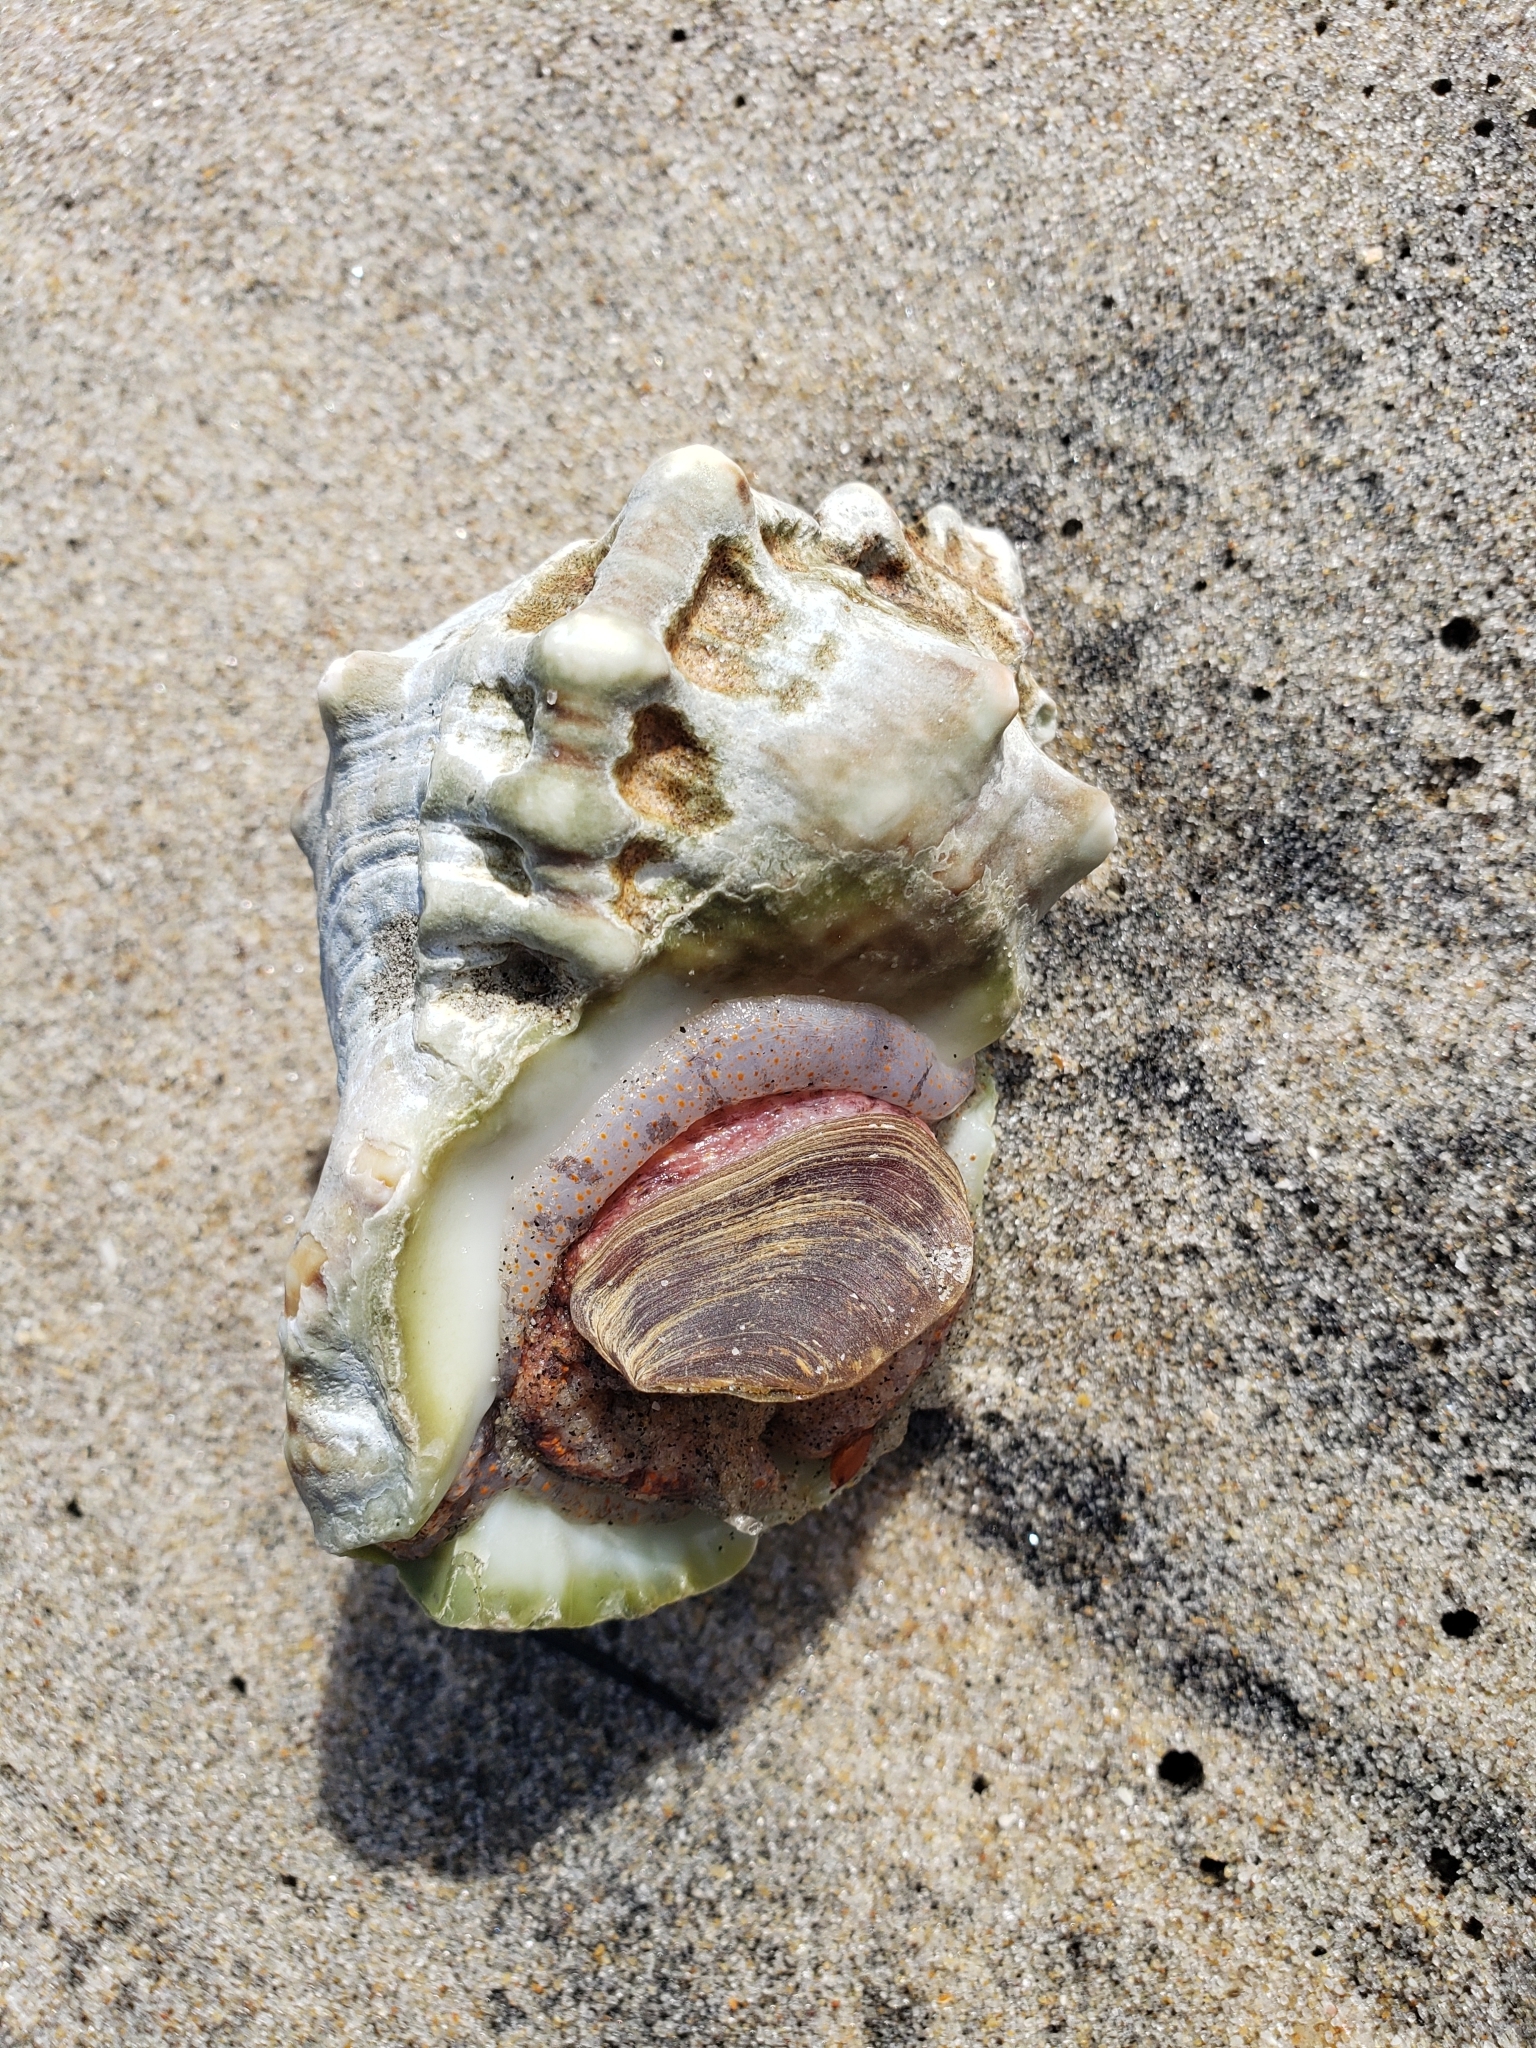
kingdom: Animalia
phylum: Mollusca
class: Gastropoda
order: Littorinimorpha
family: Bursidae
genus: Crossata
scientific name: Crossata californica
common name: California frogsnail
